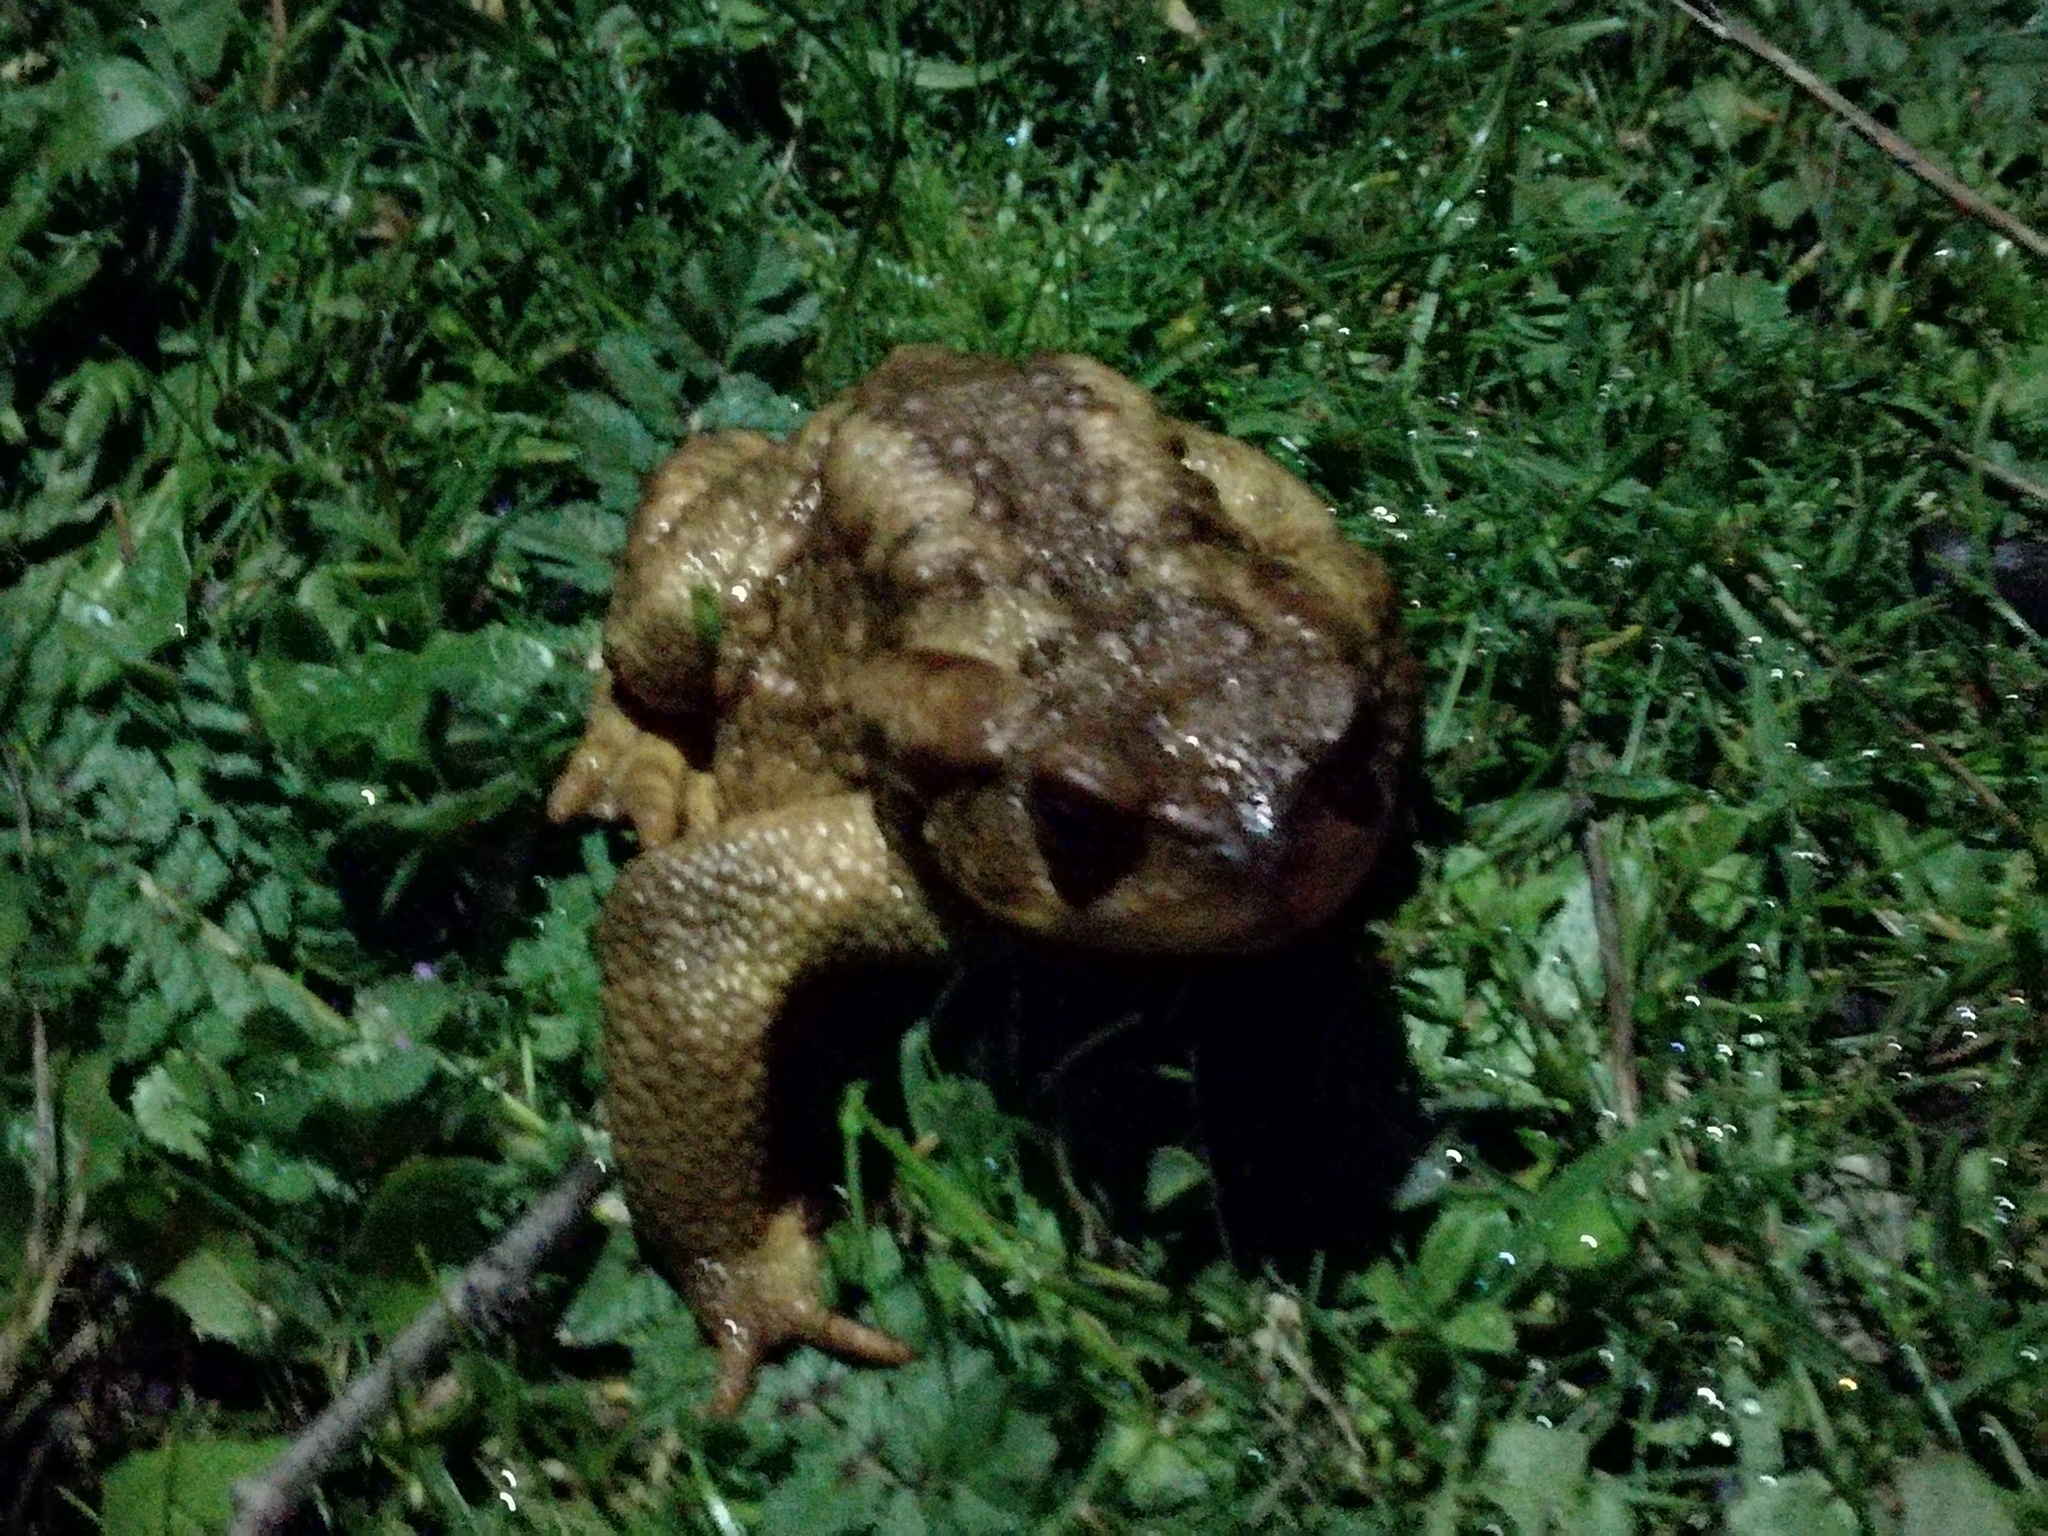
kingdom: Animalia
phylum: Chordata
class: Amphibia
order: Anura
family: Bufonidae
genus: Bufo
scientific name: Bufo spinosus
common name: Western common toad
